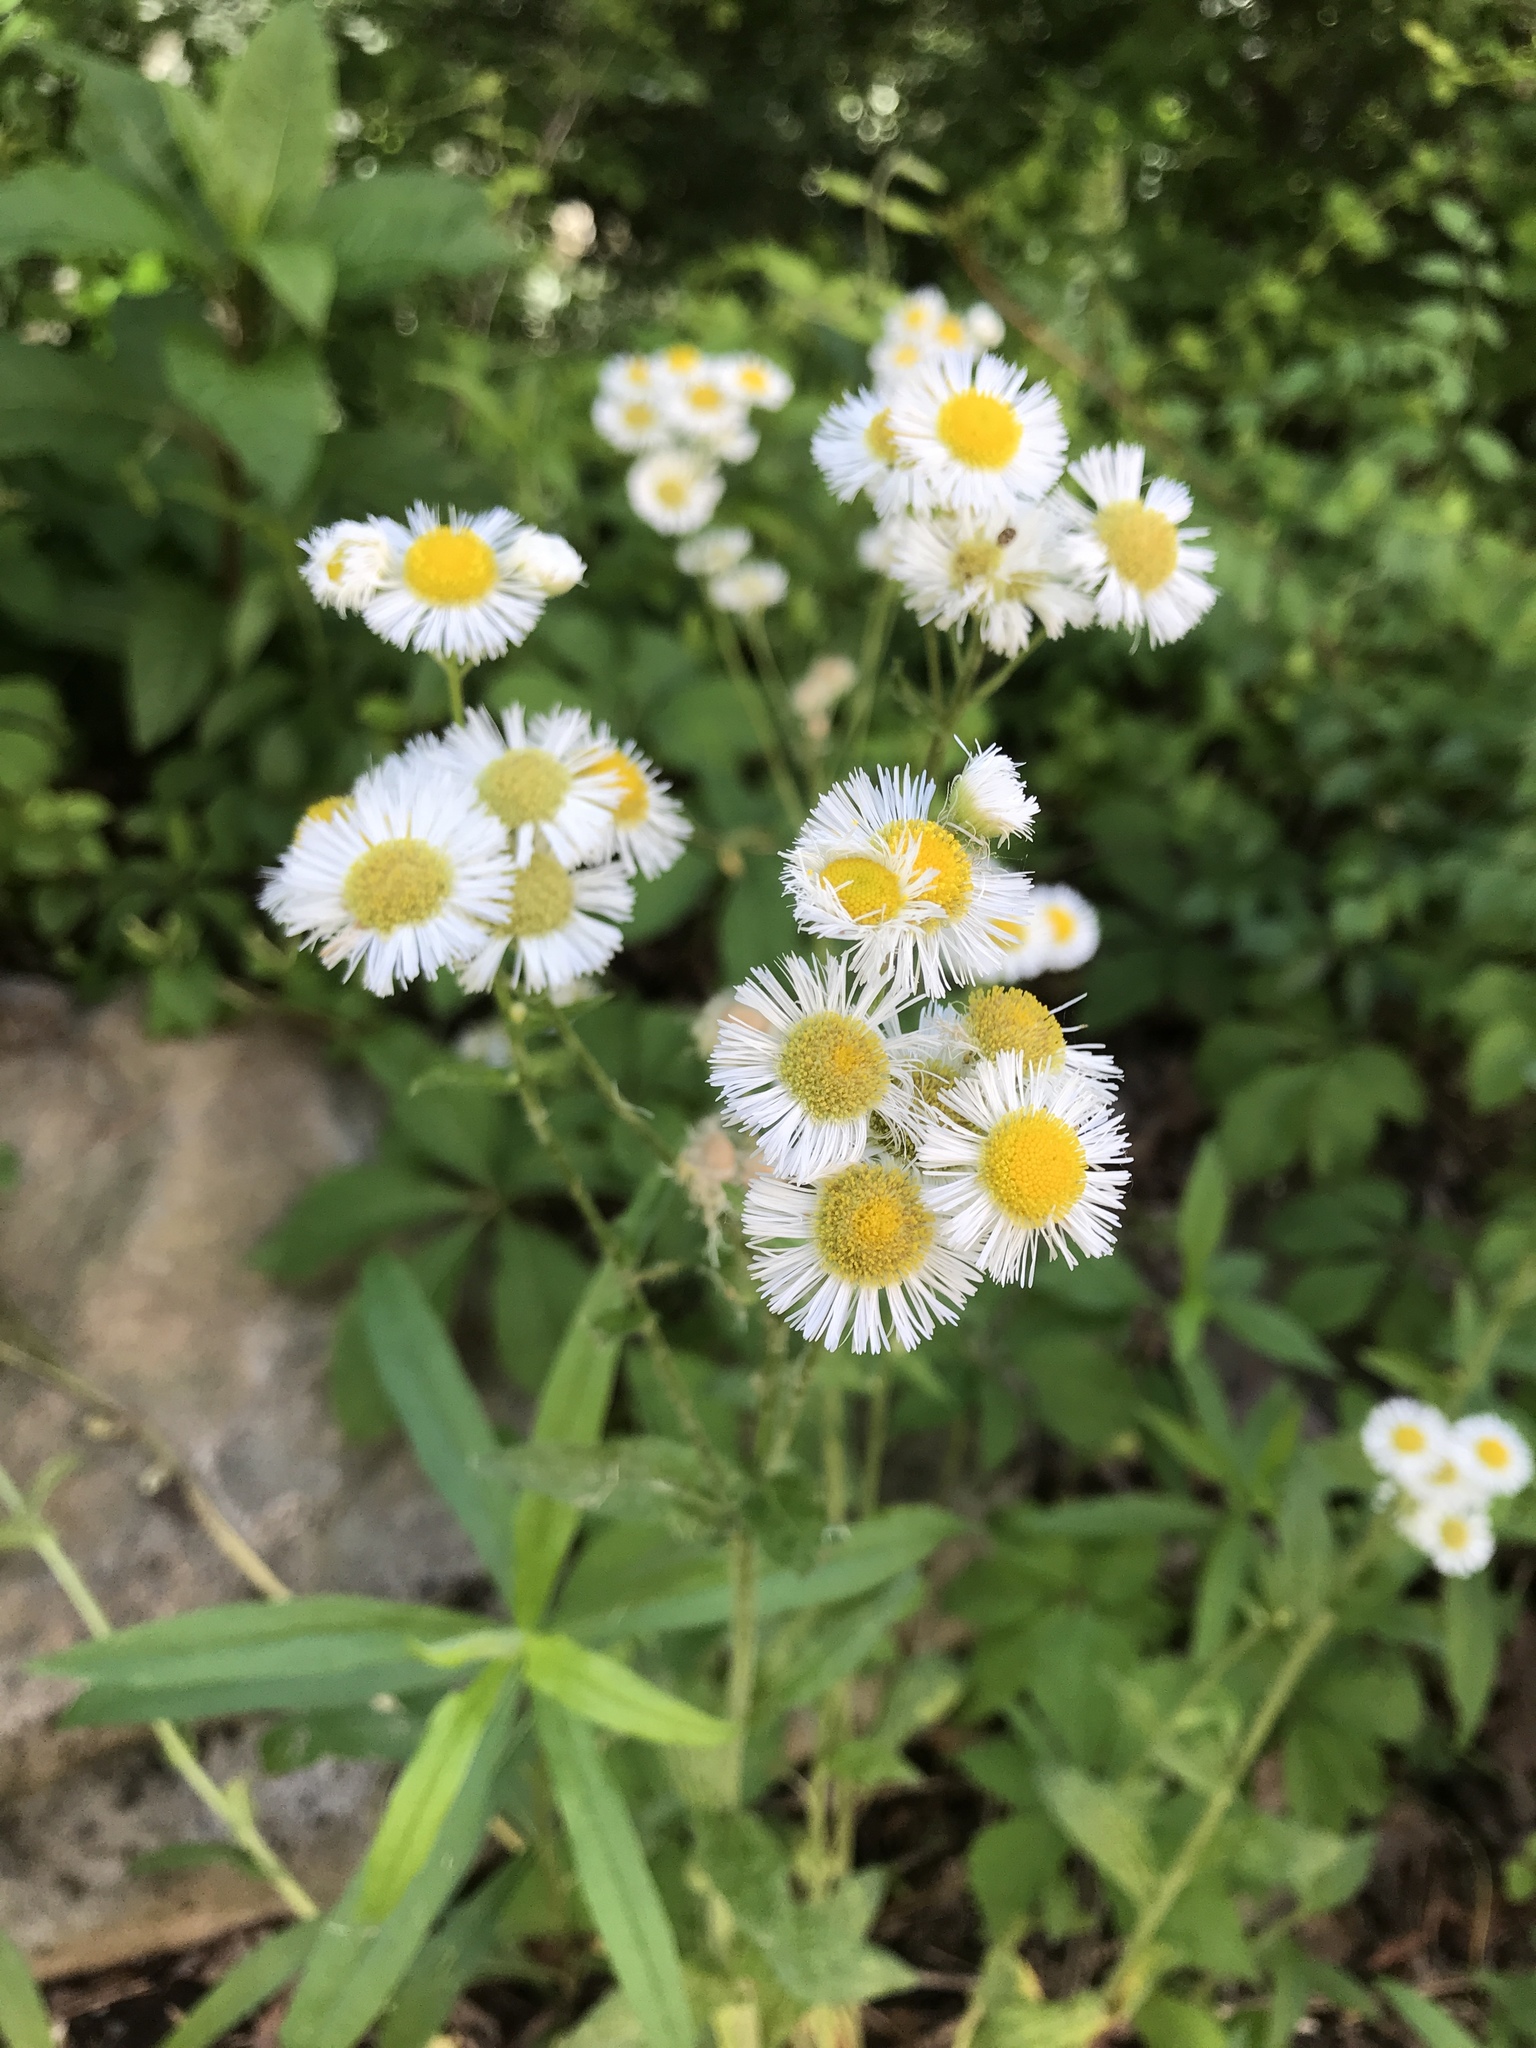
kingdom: Plantae
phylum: Tracheophyta
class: Magnoliopsida
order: Asterales
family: Asteraceae
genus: Erigeron
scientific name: Erigeron philadelphicus
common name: Robin's-plantain
